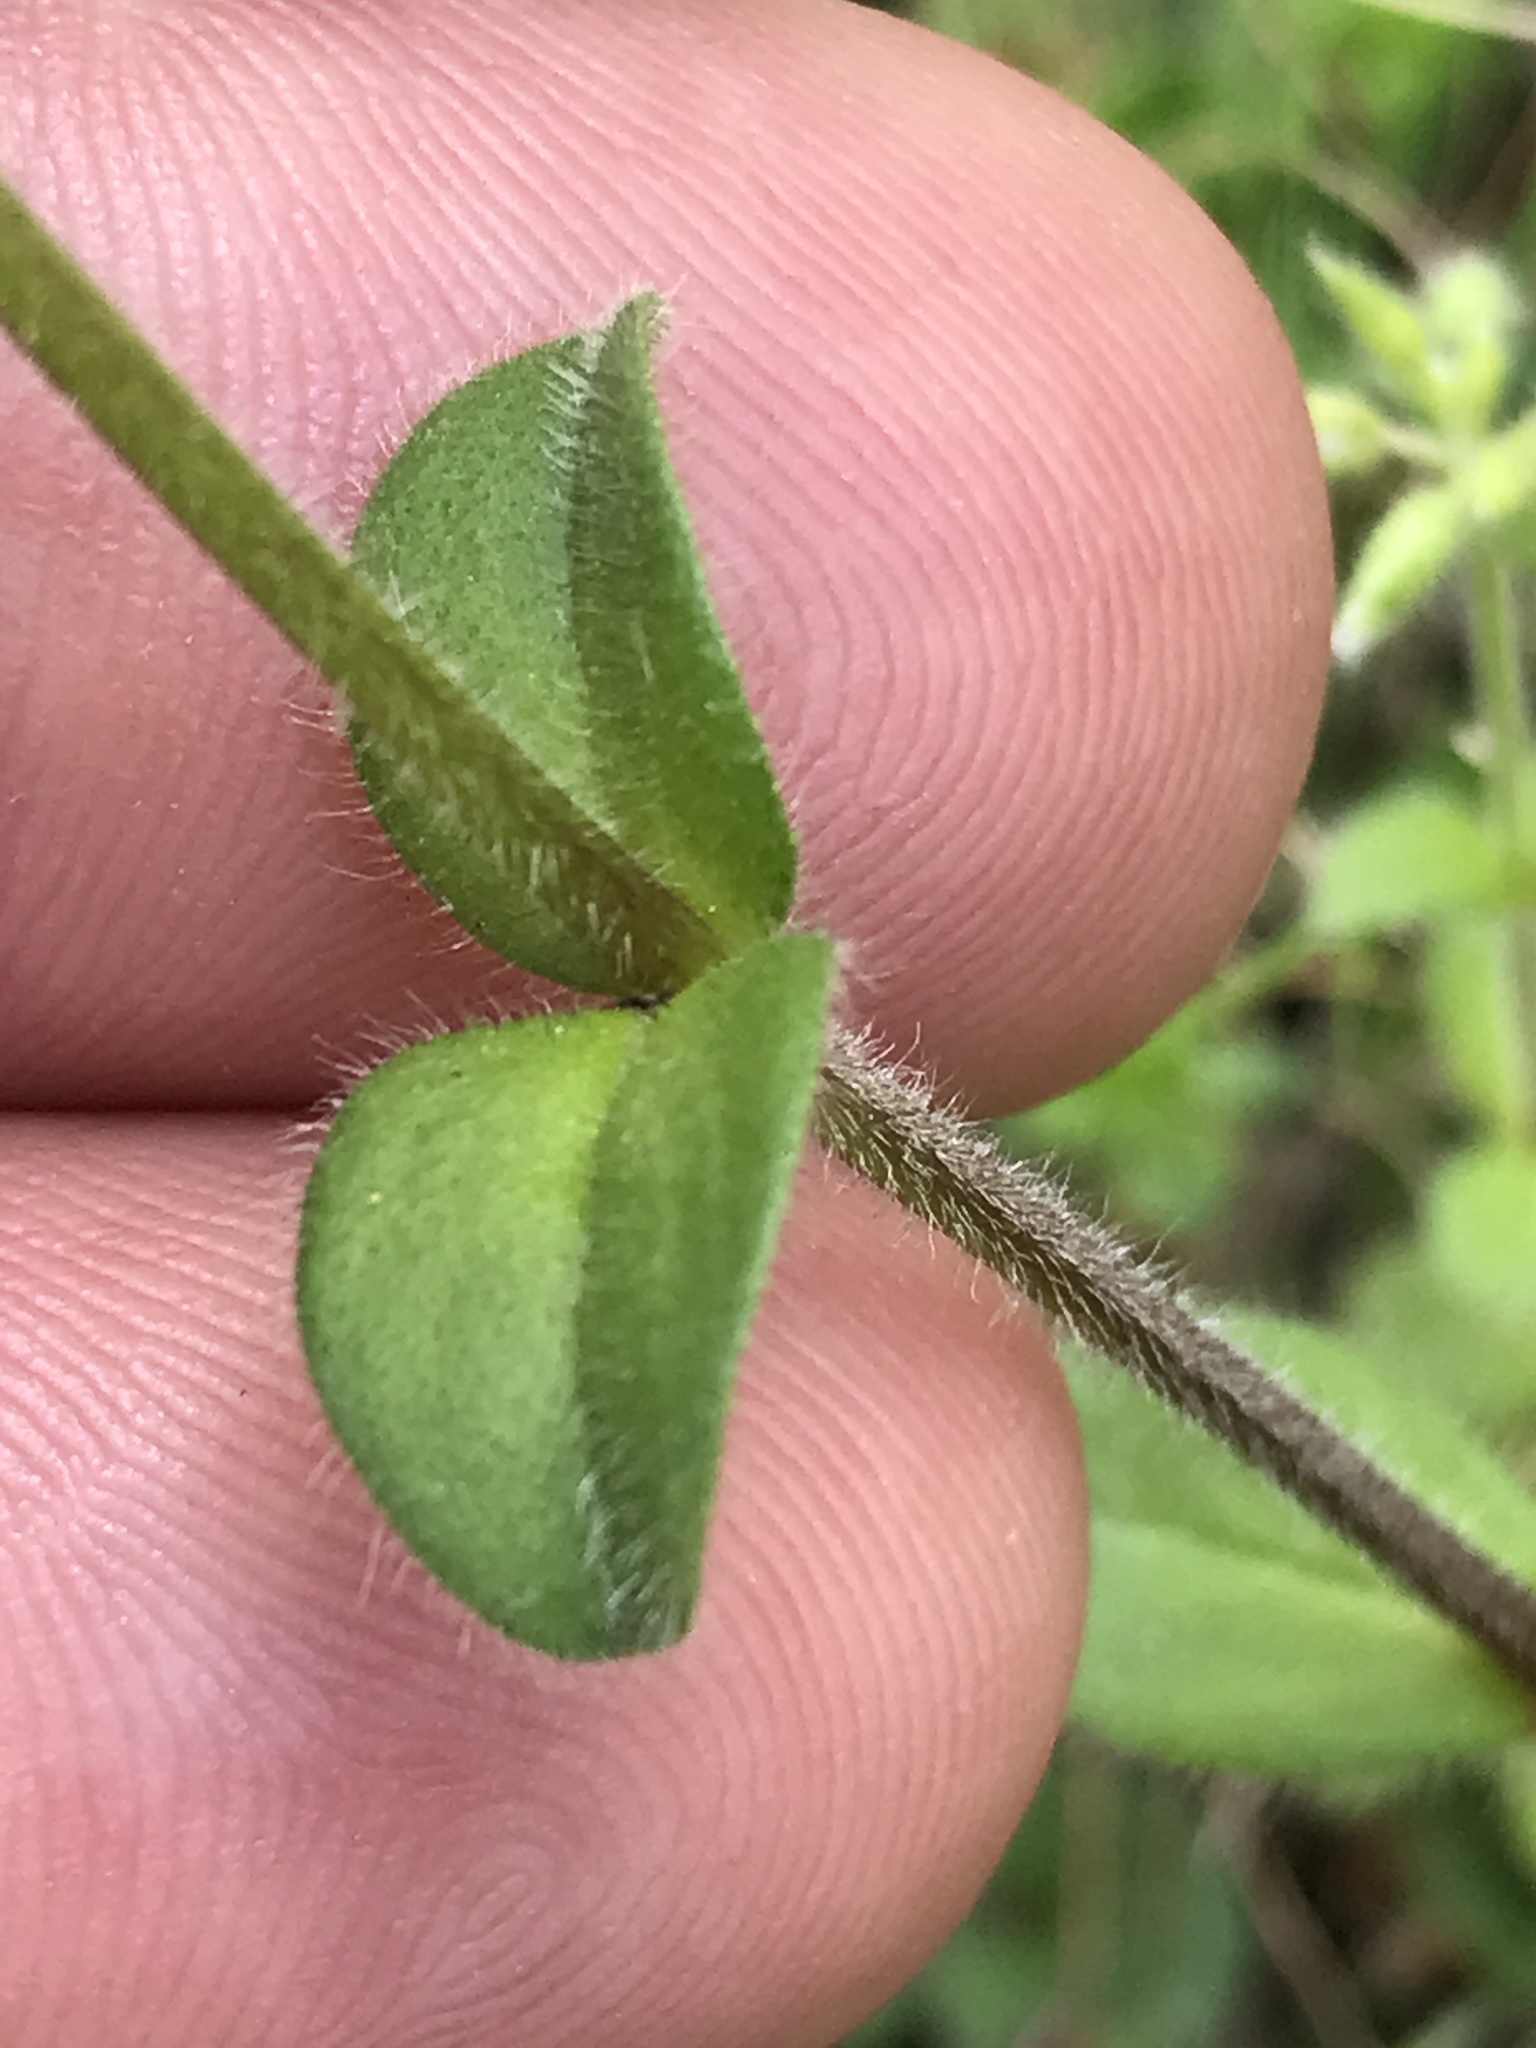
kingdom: Plantae
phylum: Tracheophyta
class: Magnoliopsida
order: Caryophyllales
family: Caryophyllaceae
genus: Cerastium
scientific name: Cerastium glomeratum
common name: Sticky chickweed
